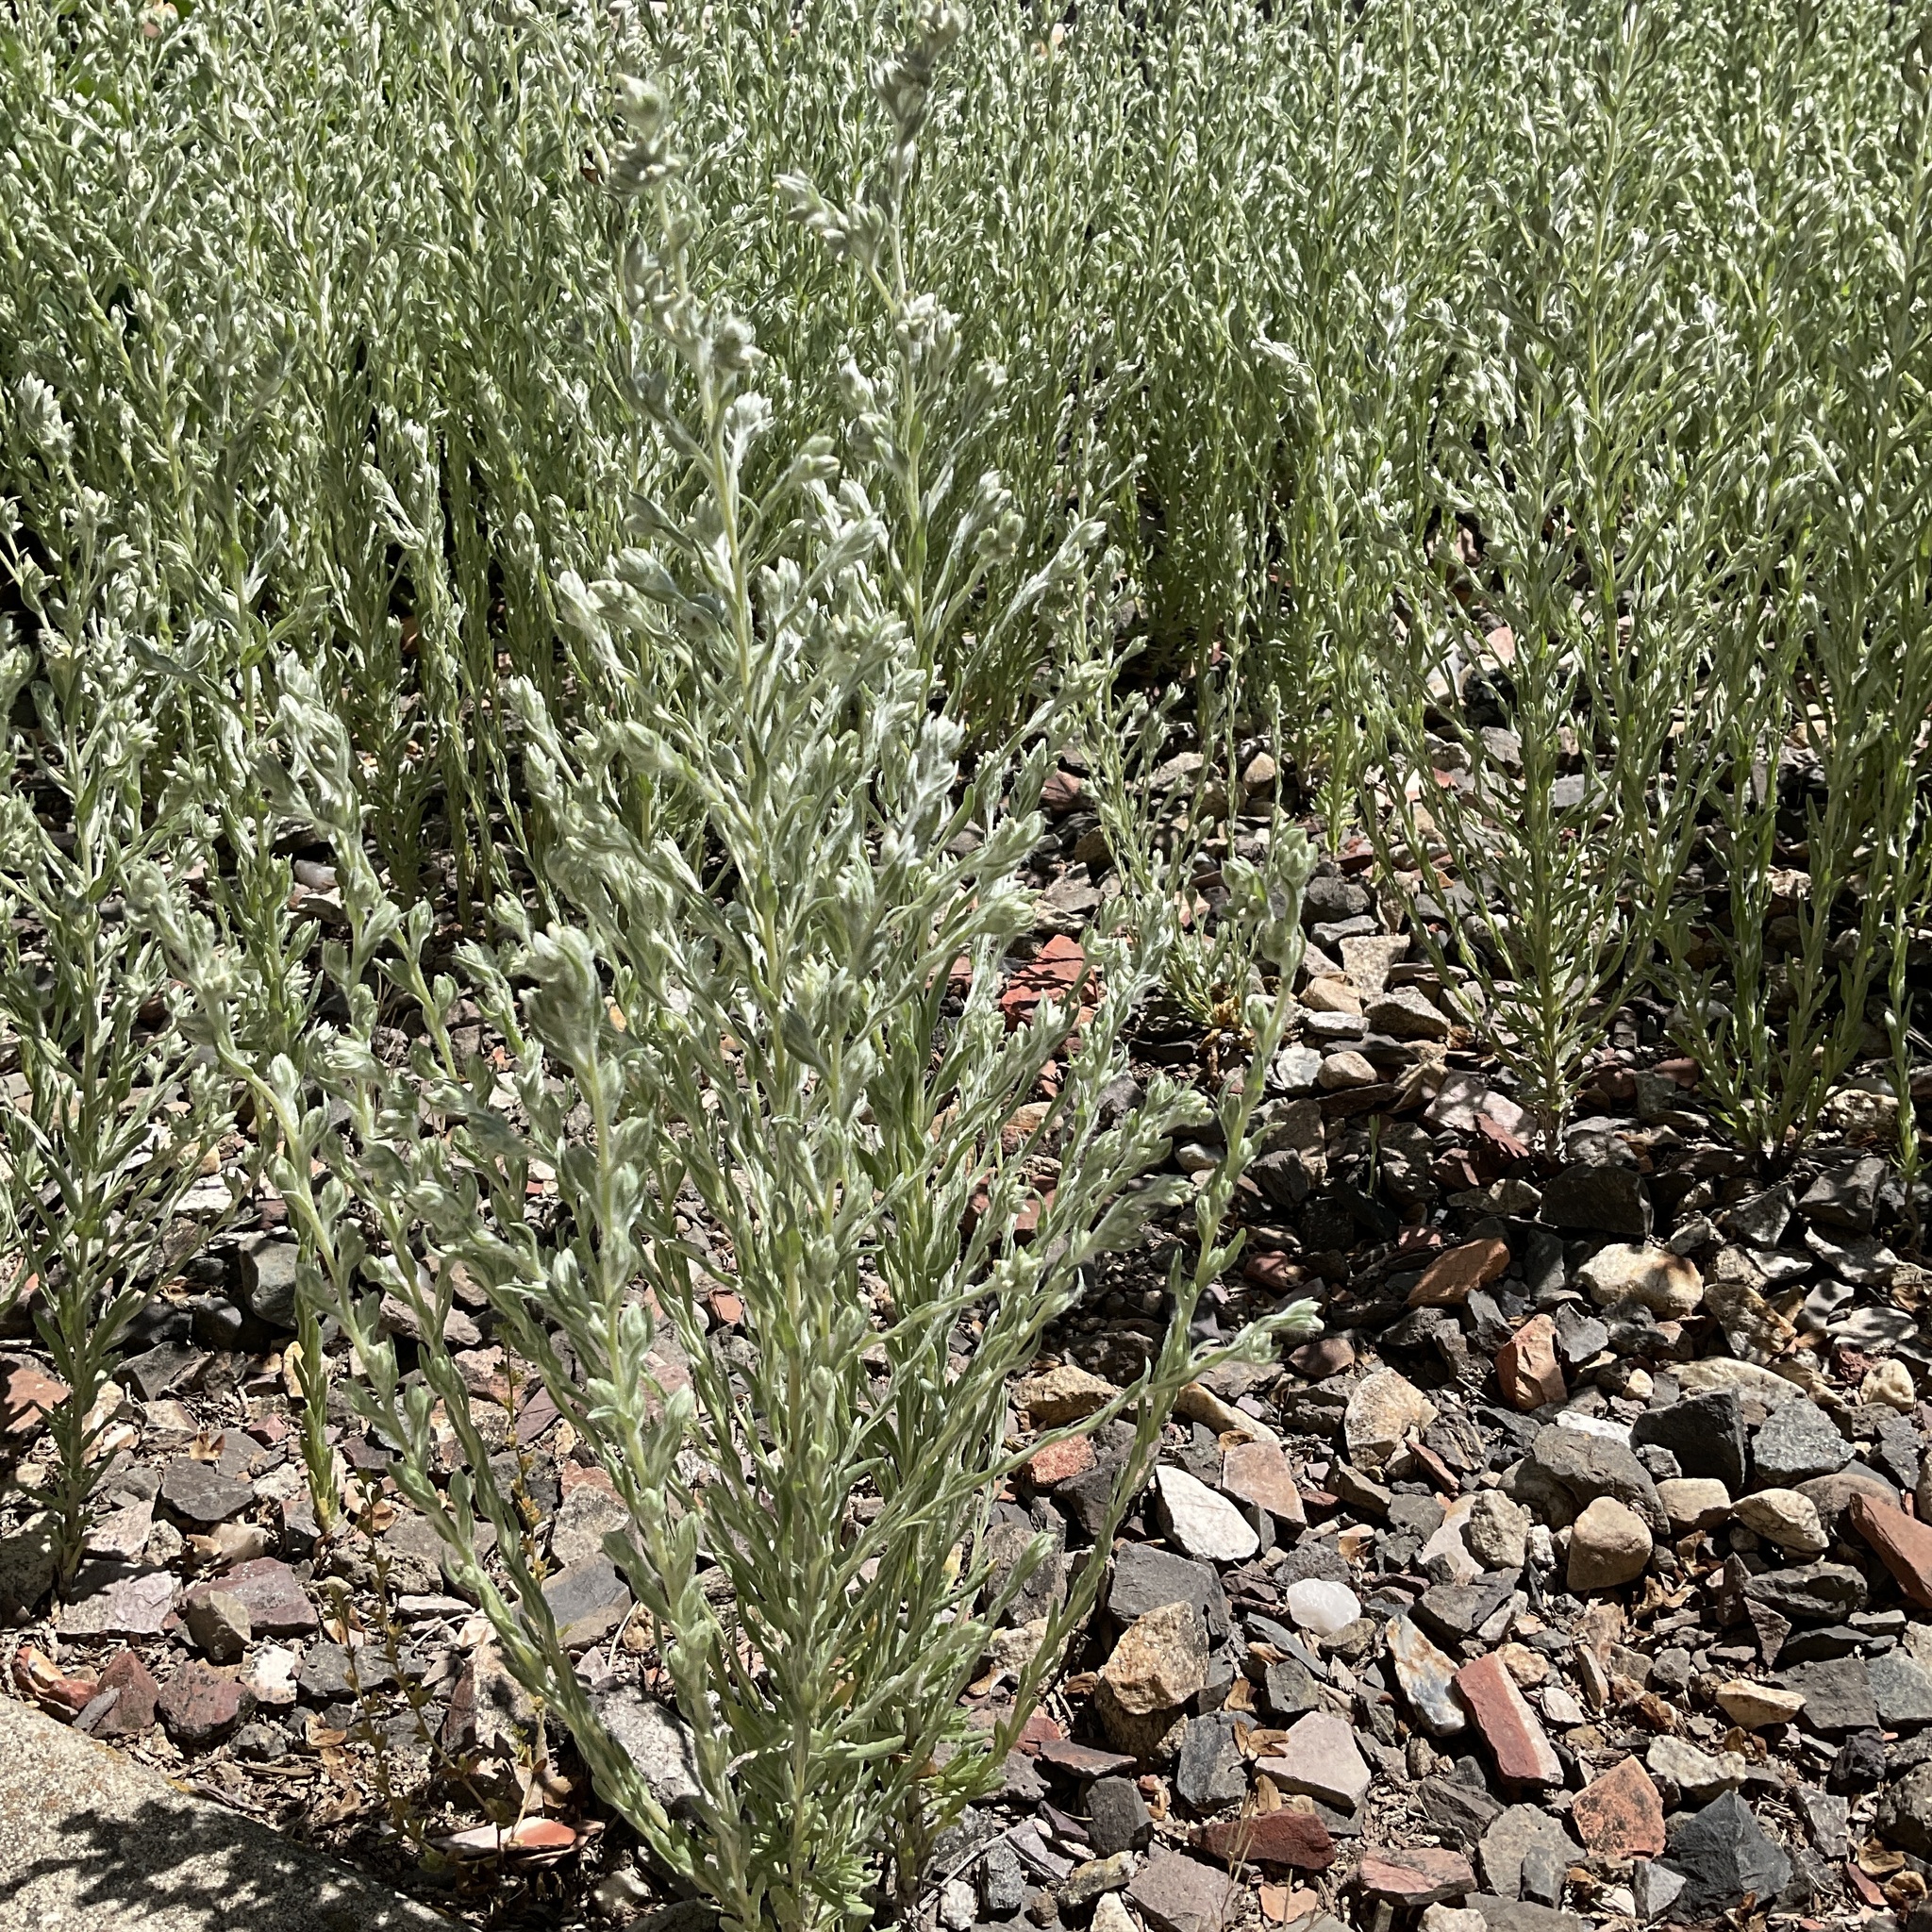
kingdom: Plantae
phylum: Tracheophyta
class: Magnoliopsida
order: Asterales
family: Asteraceae
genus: Filago
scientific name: Filago arvensis
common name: Field cudweed
